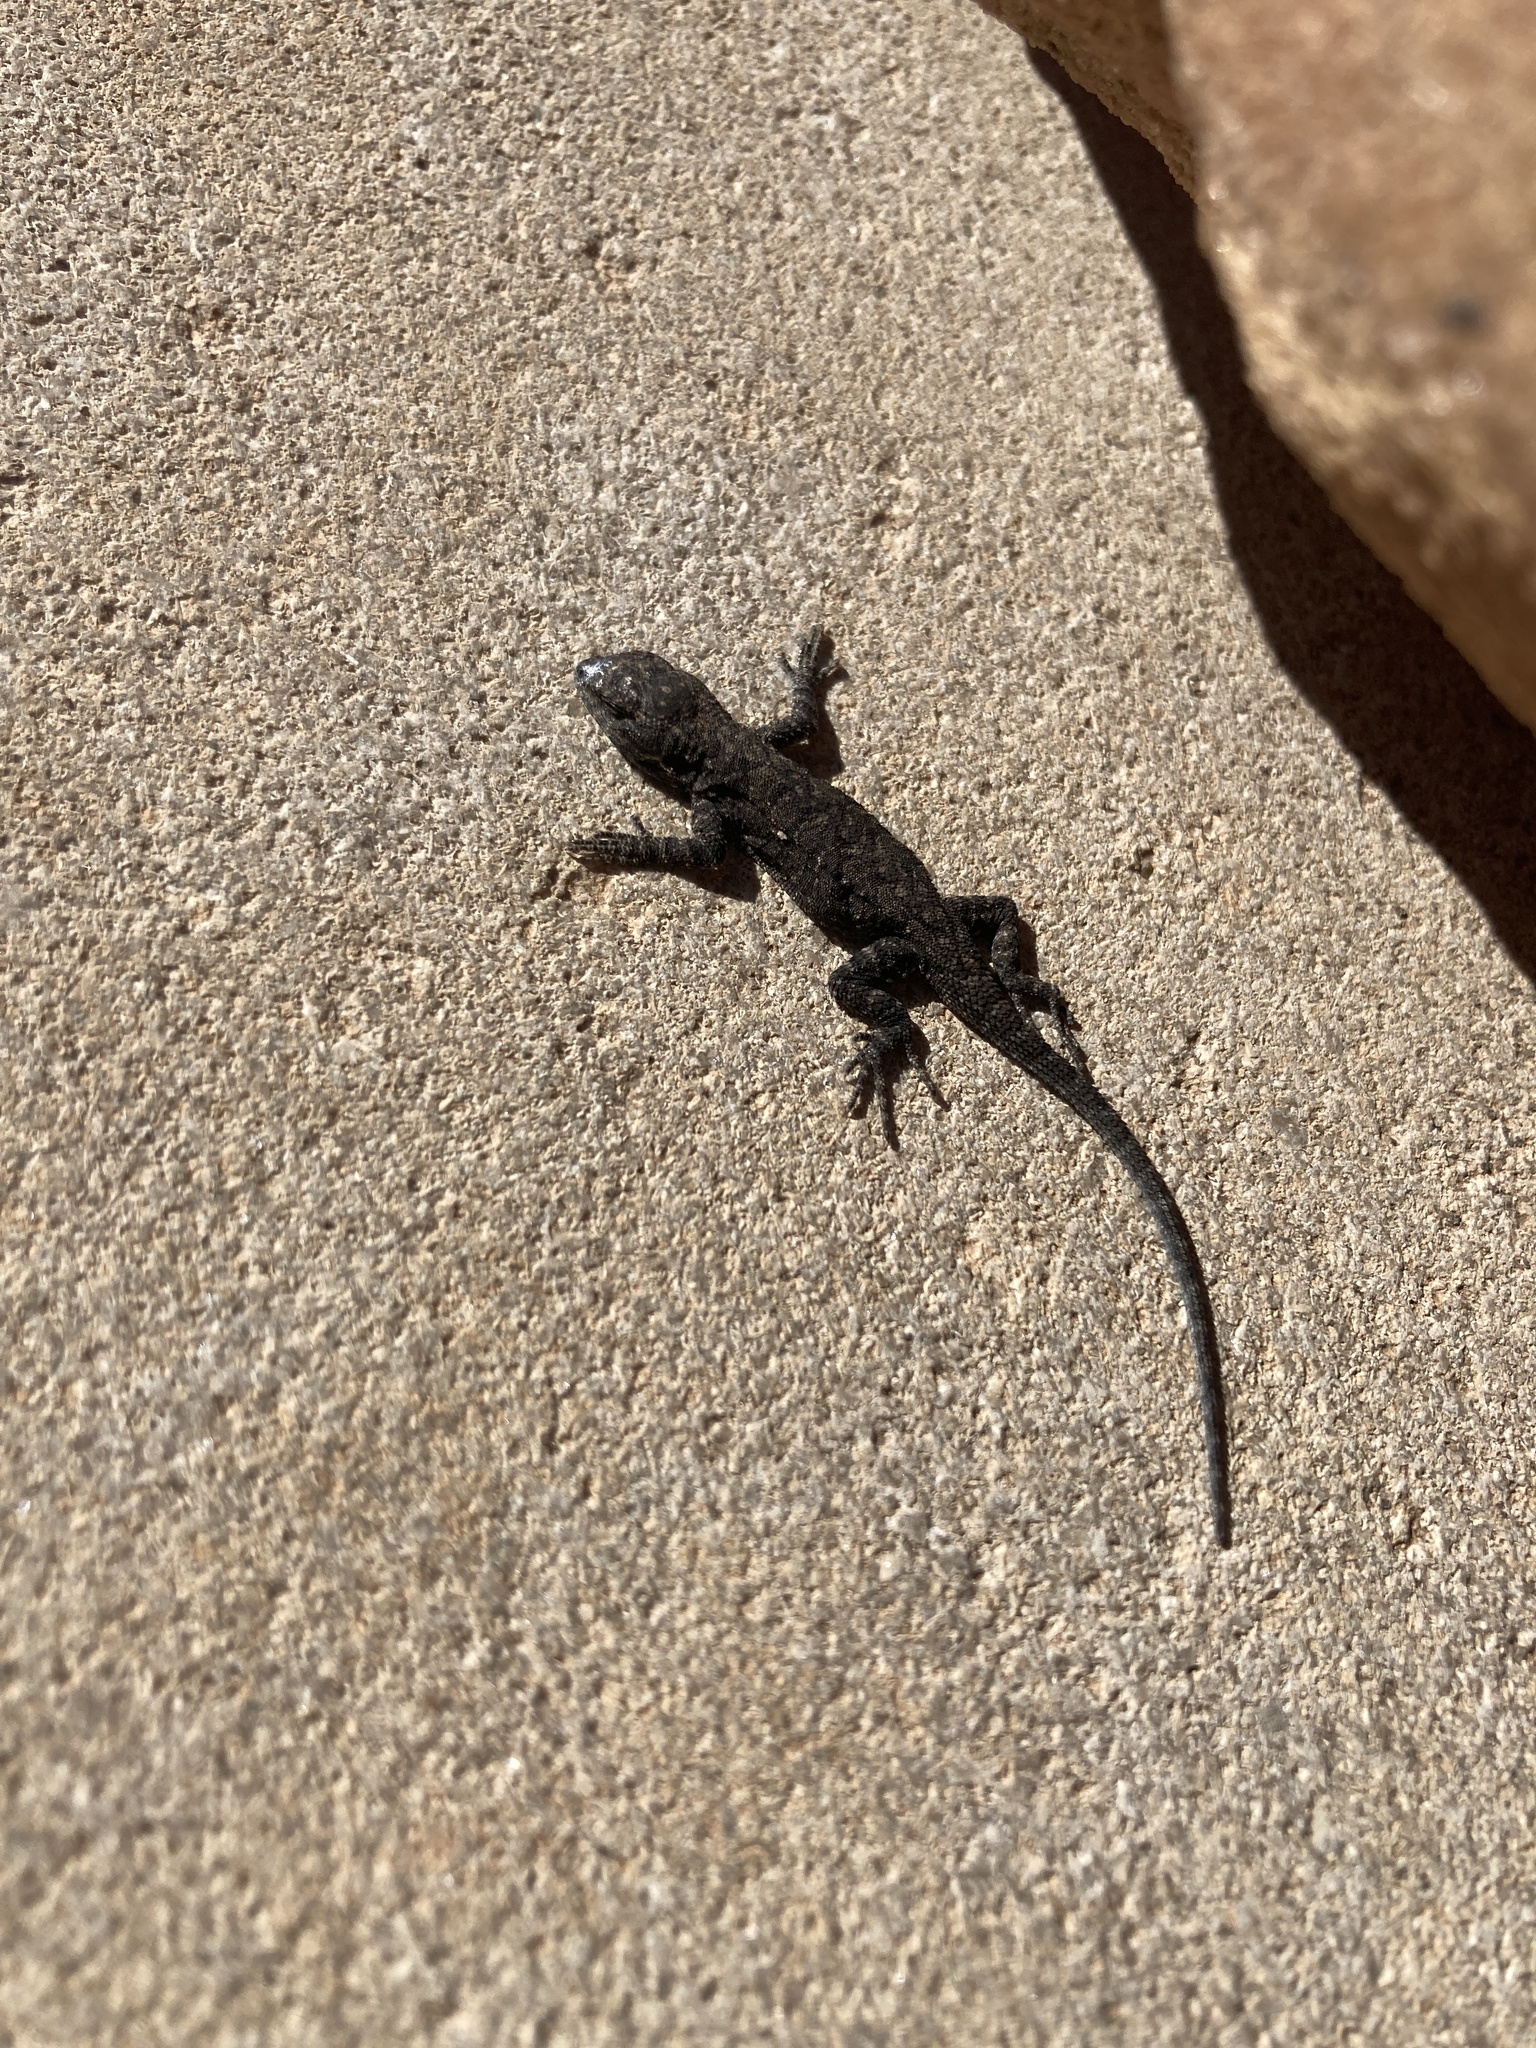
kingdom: Animalia
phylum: Chordata
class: Squamata
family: Phrynosomatidae
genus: Urosaurus
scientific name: Urosaurus ornatus
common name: Ornate tree lizard
